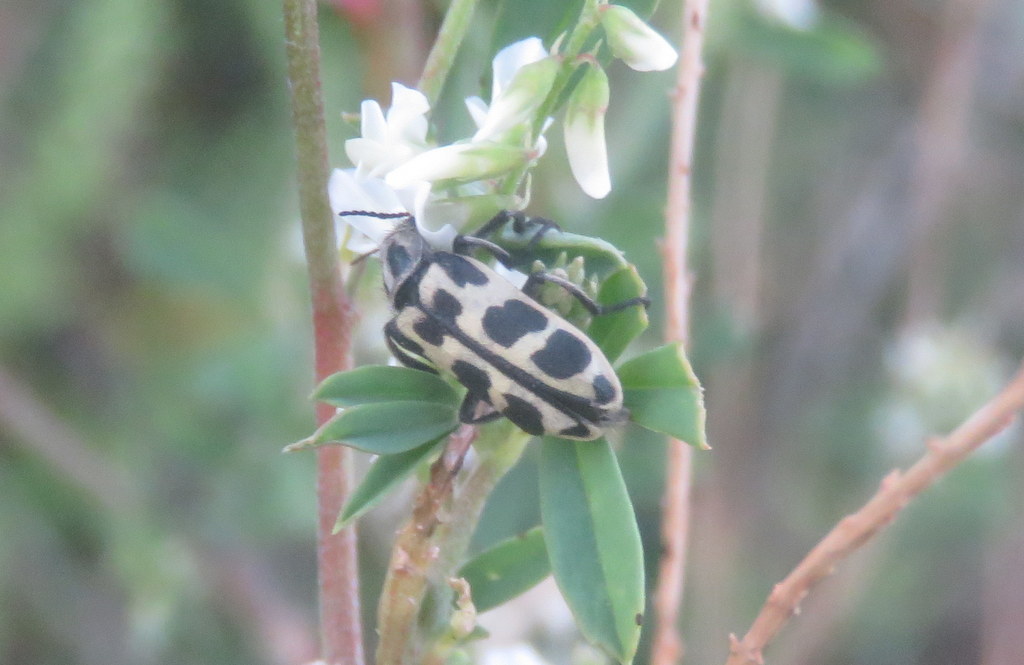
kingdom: Animalia
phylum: Arthropoda
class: Insecta
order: Coleoptera
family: Melyridae
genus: Astylus
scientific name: Astylus atromaculatus
